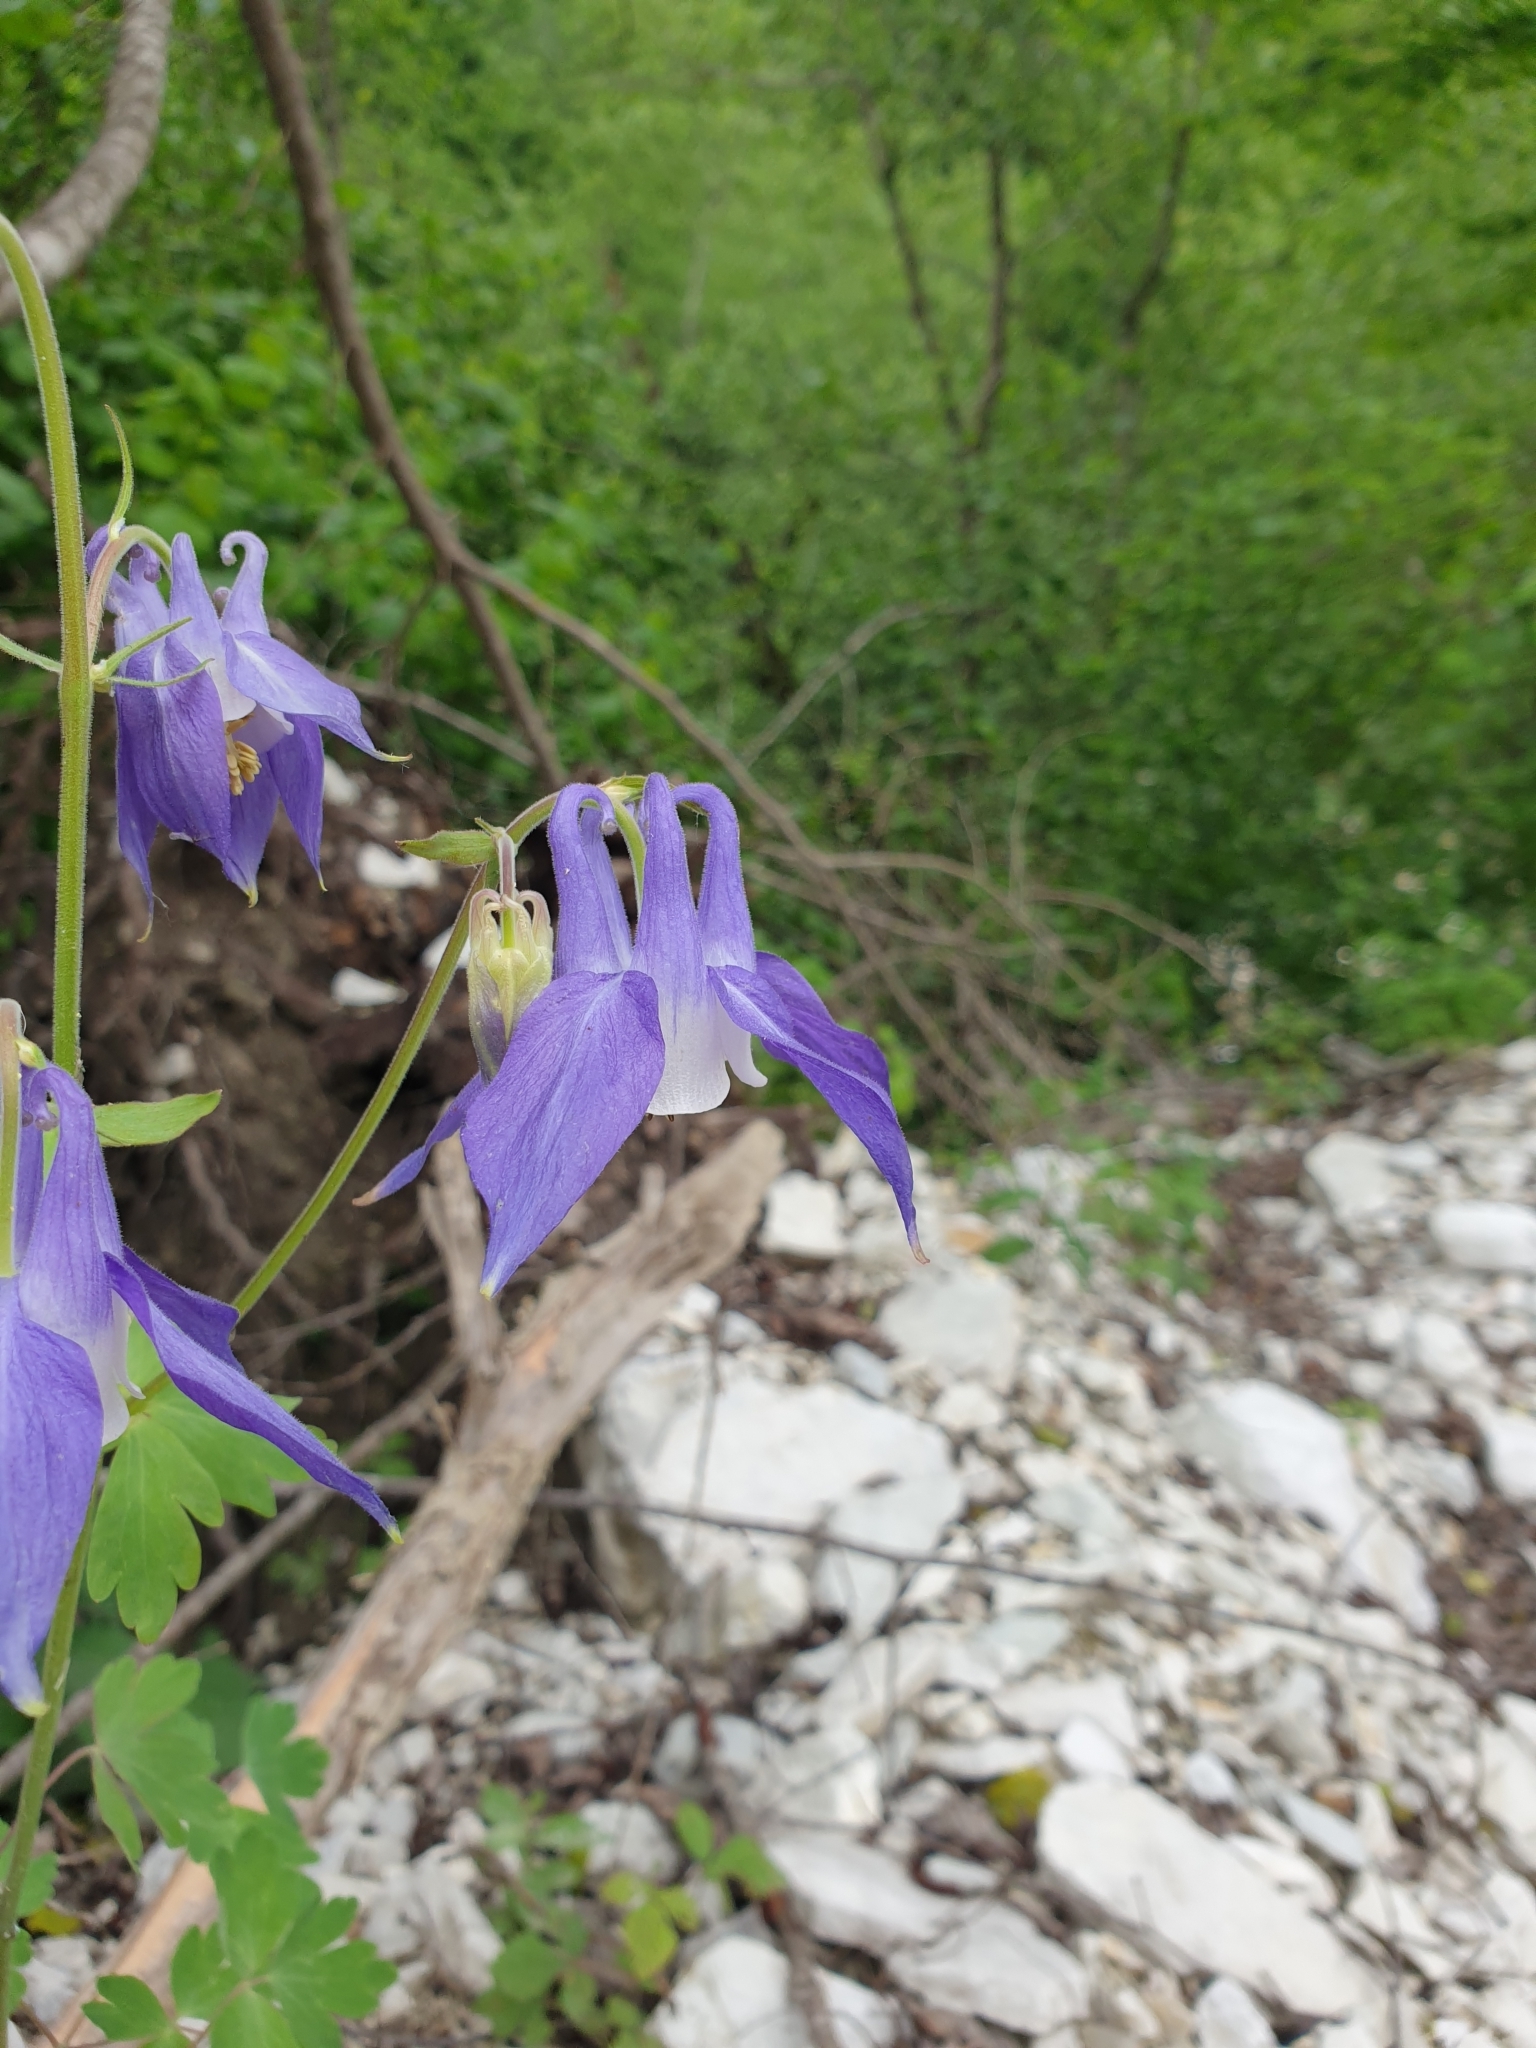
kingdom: Plantae
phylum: Tracheophyta
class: Magnoliopsida
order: Ranunculales
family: Ranunculaceae
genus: Aquilegia
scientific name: Aquilegia olympica
